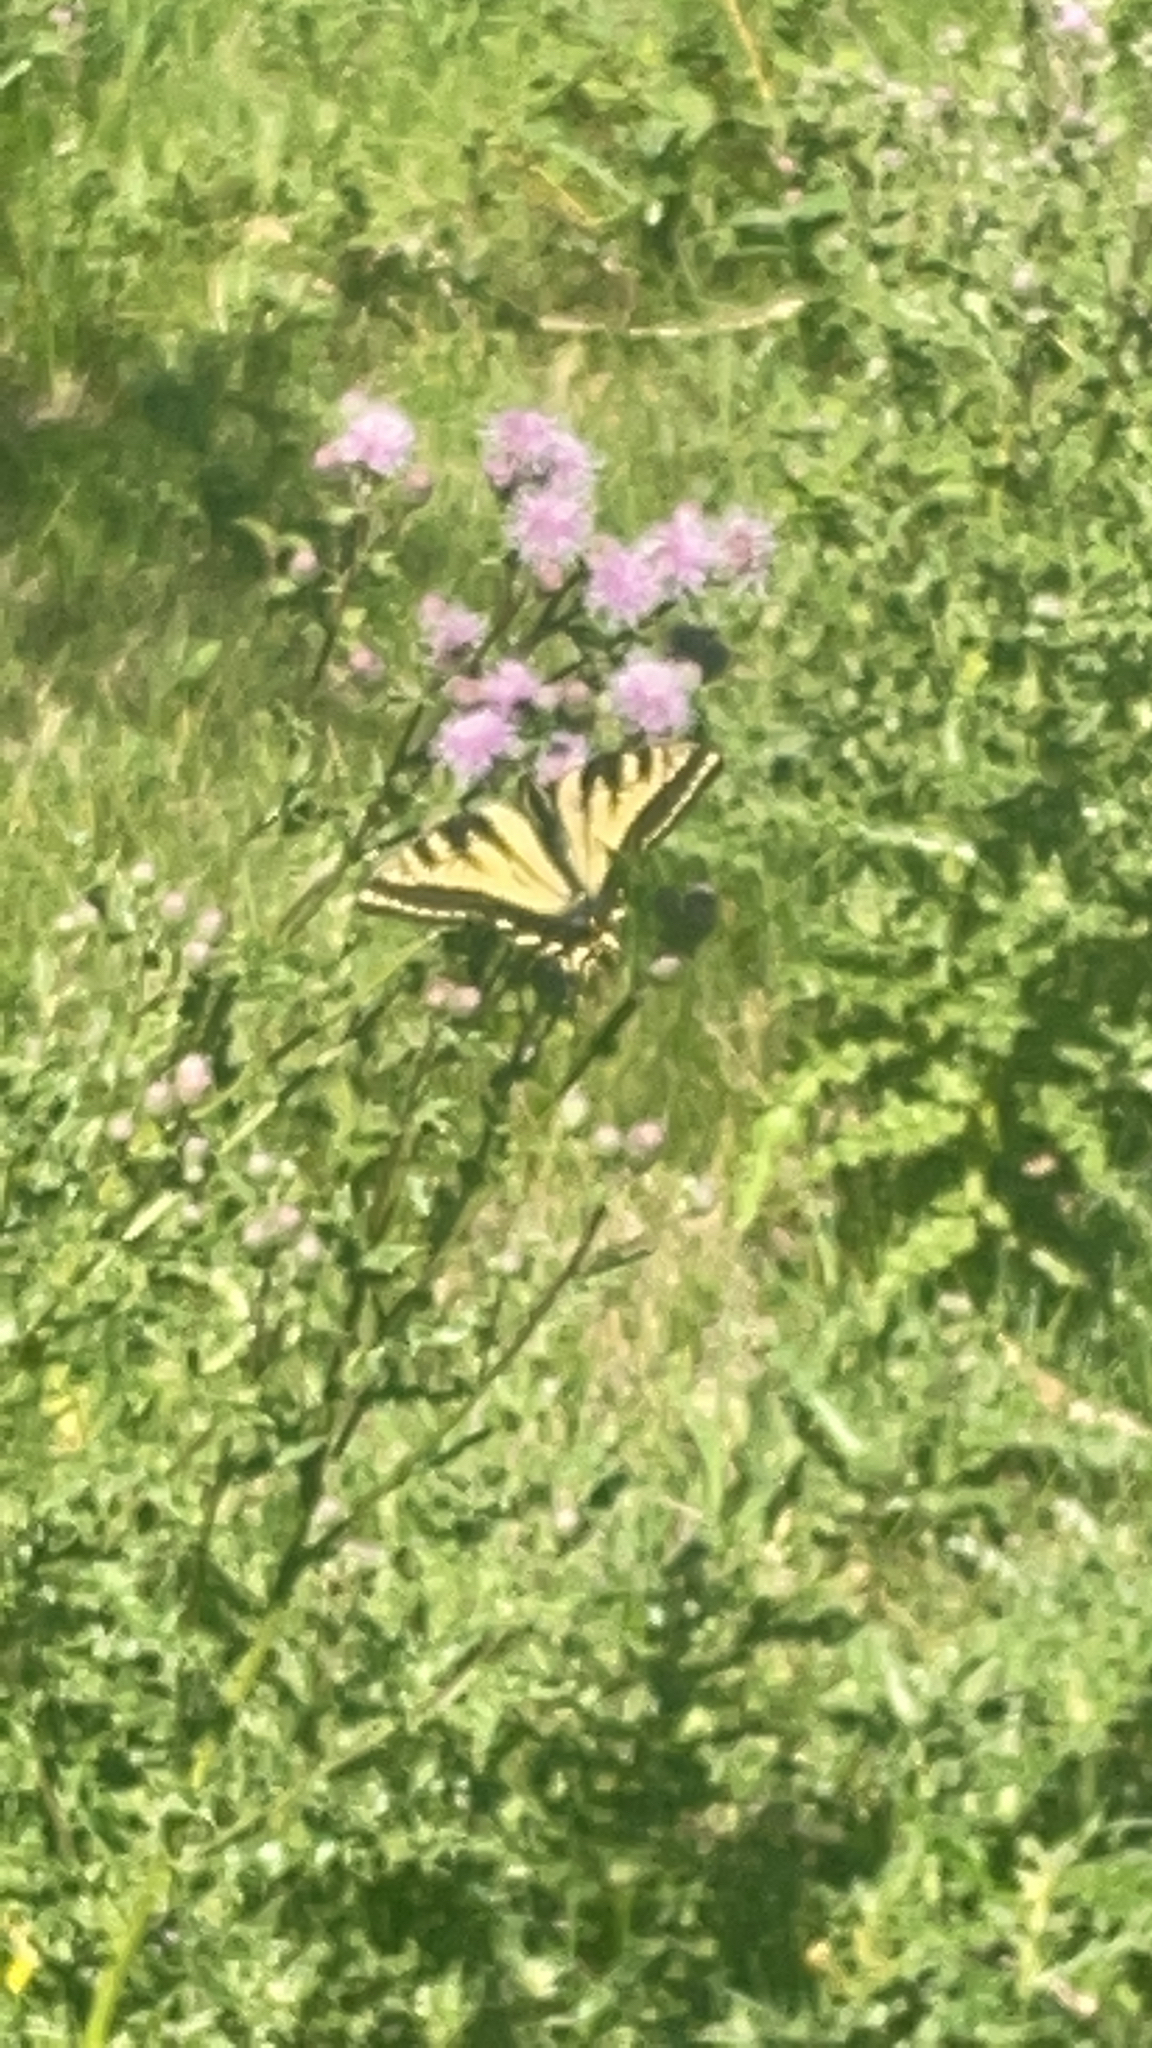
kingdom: Animalia
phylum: Arthropoda
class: Insecta
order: Lepidoptera
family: Papilionidae
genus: Papilio
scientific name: Papilio rutulus
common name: Western tiger swallowtail
